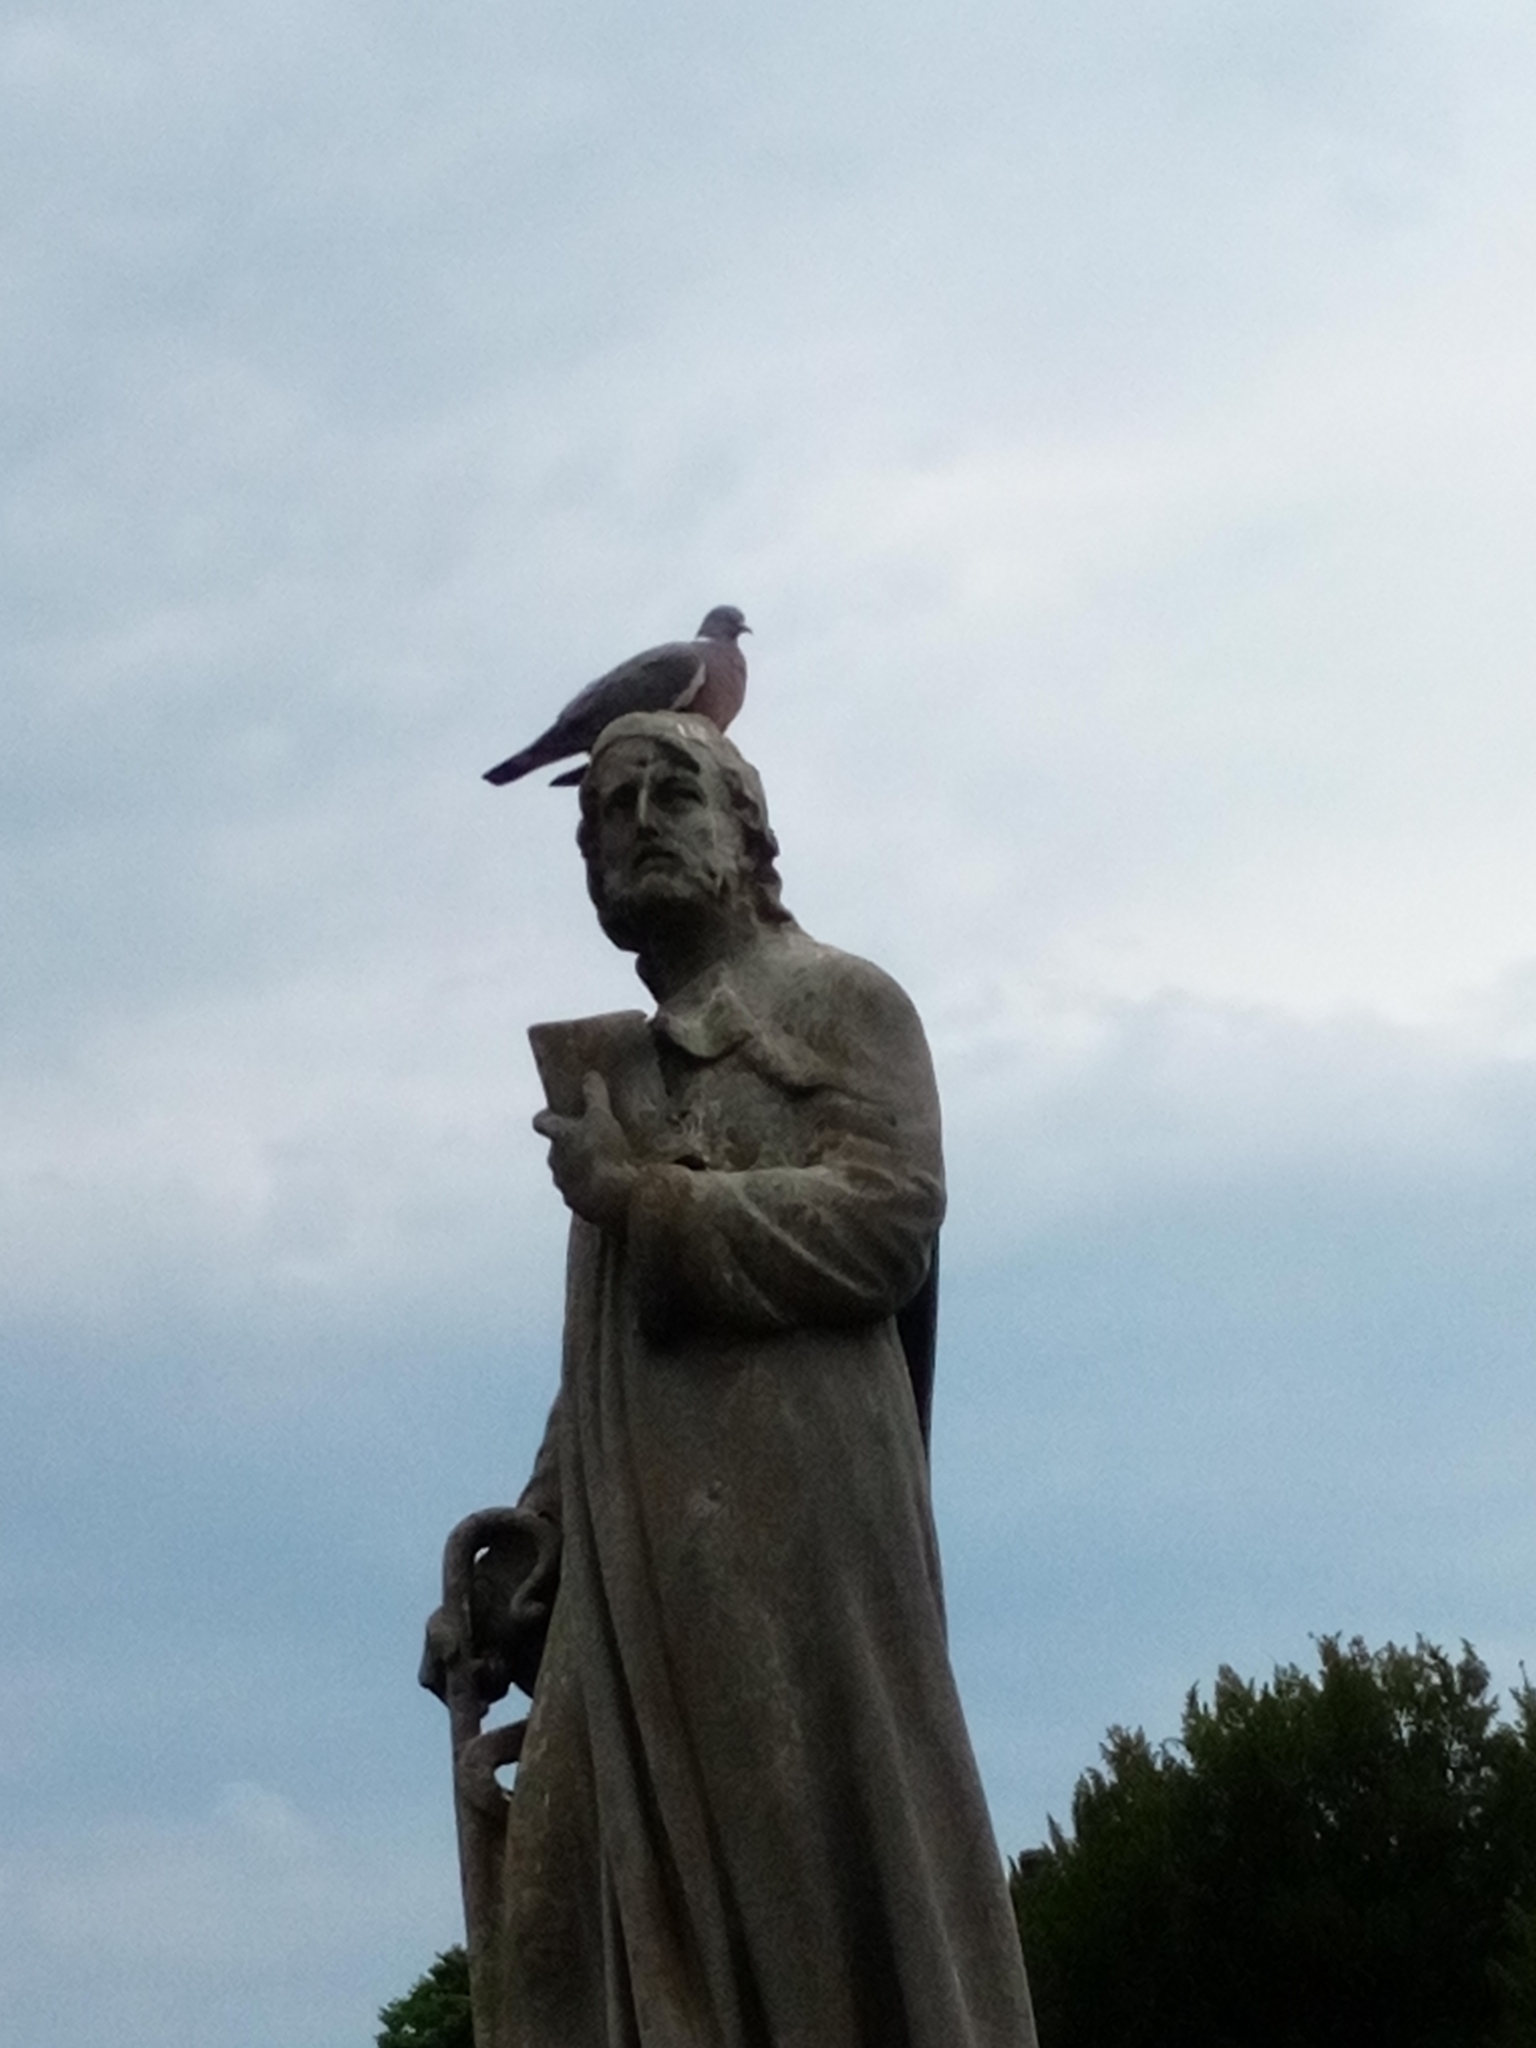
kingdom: Animalia
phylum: Chordata
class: Aves
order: Columbiformes
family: Columbidae
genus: Columba
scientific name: Columba palumbus
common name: Common wood pigeon
